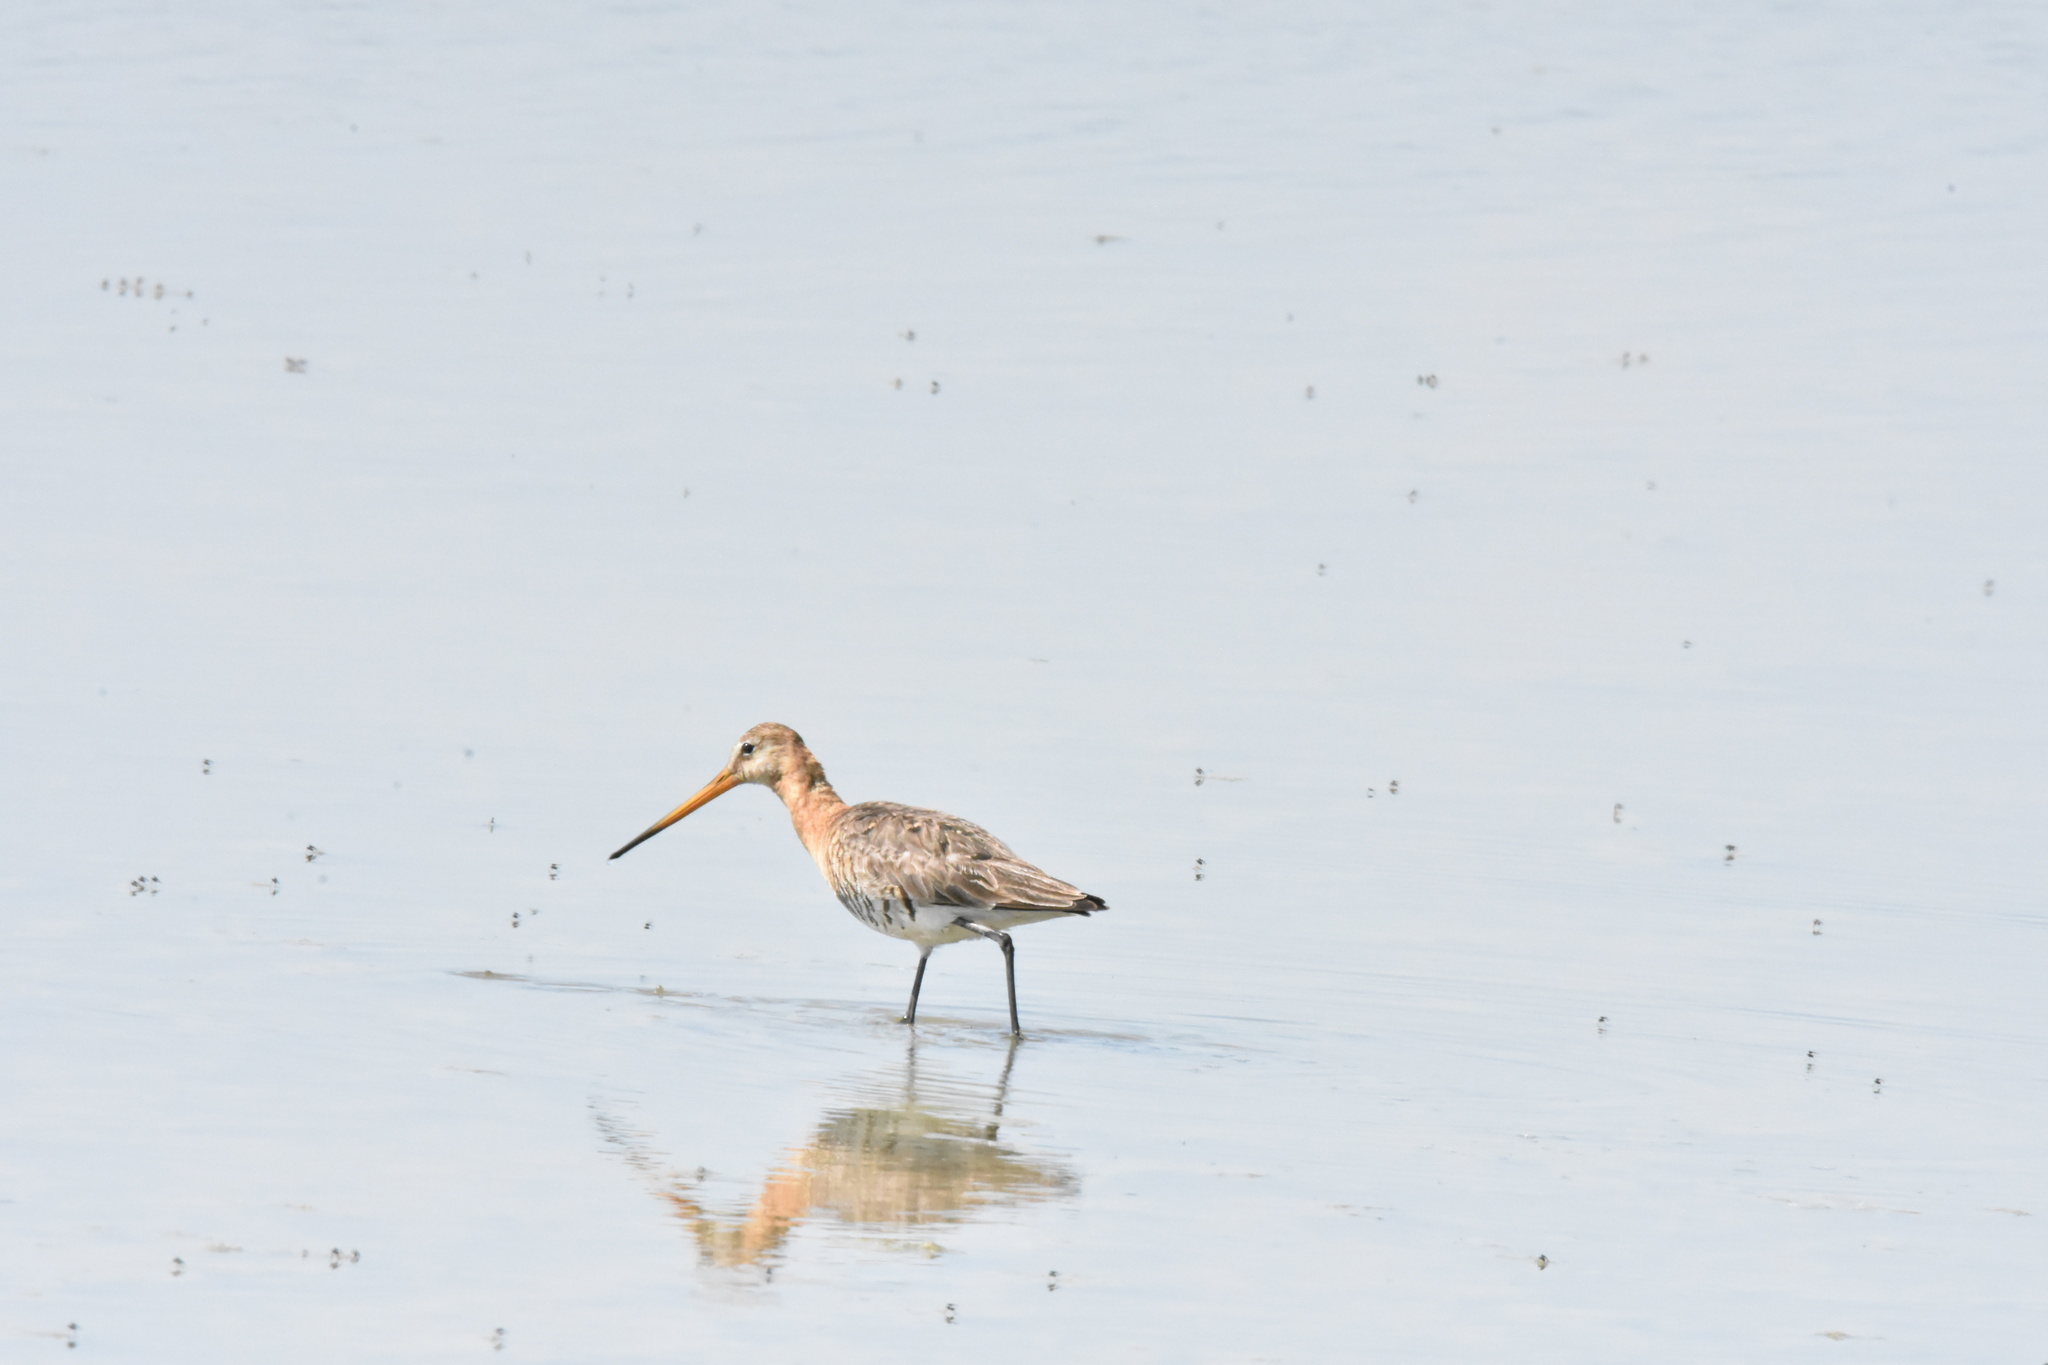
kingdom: Animalia
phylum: Chordata
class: Aves
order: Charadriiformes
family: Scolopacidae
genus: Limosa
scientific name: Limosa limosa
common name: Black-tailed godwit
